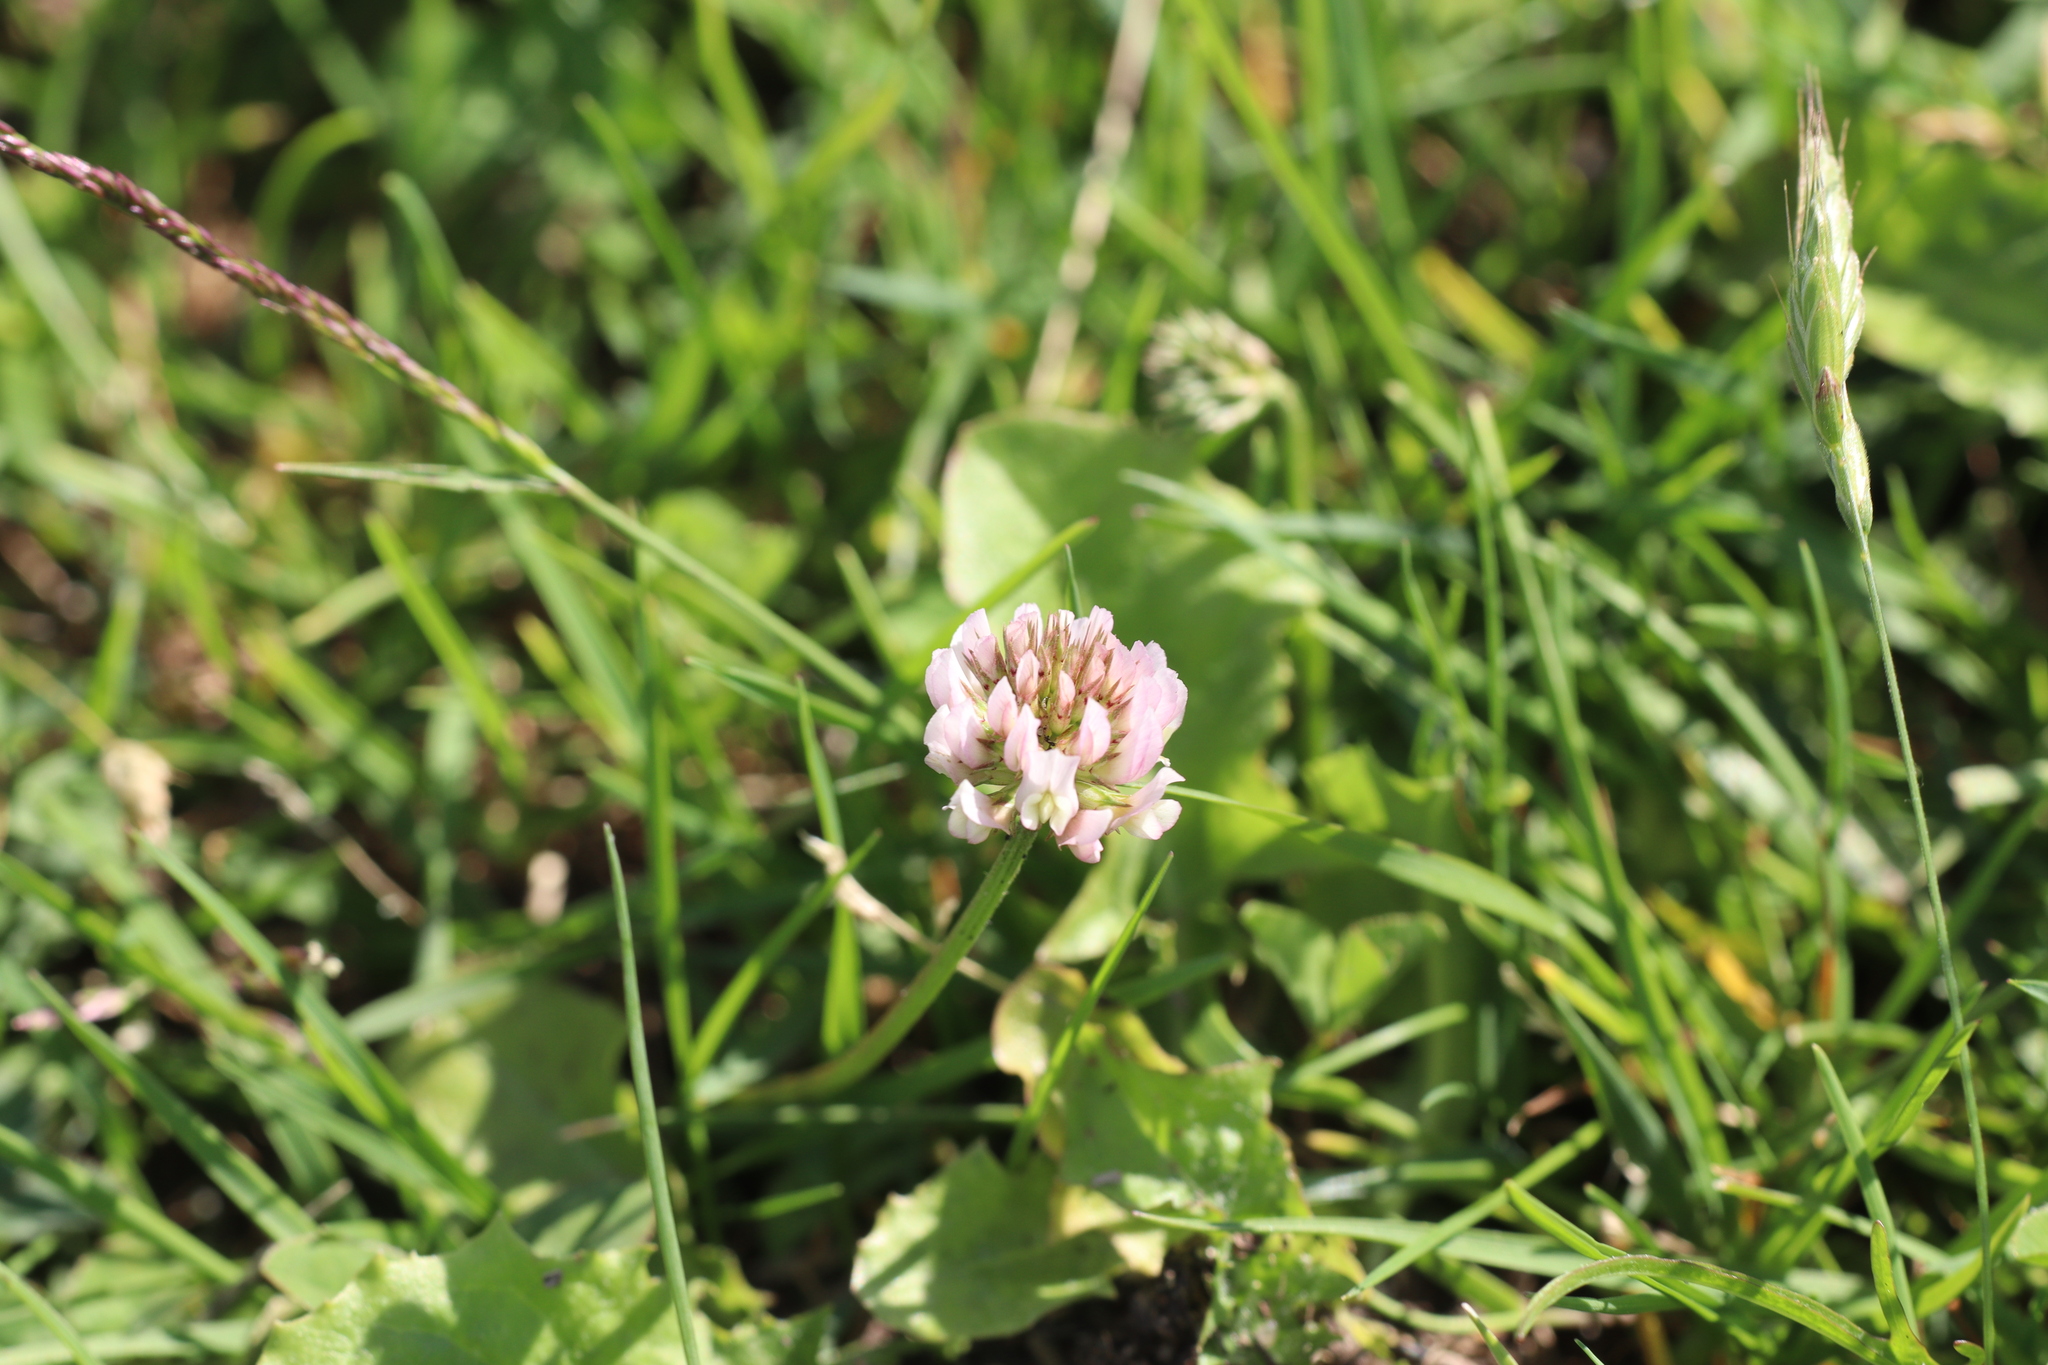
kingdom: Plantae
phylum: Tracheophyta
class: Magnoliopsida
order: Fabales
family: Fabaceae
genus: Trifolium
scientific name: Trifolium repens
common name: White clover
